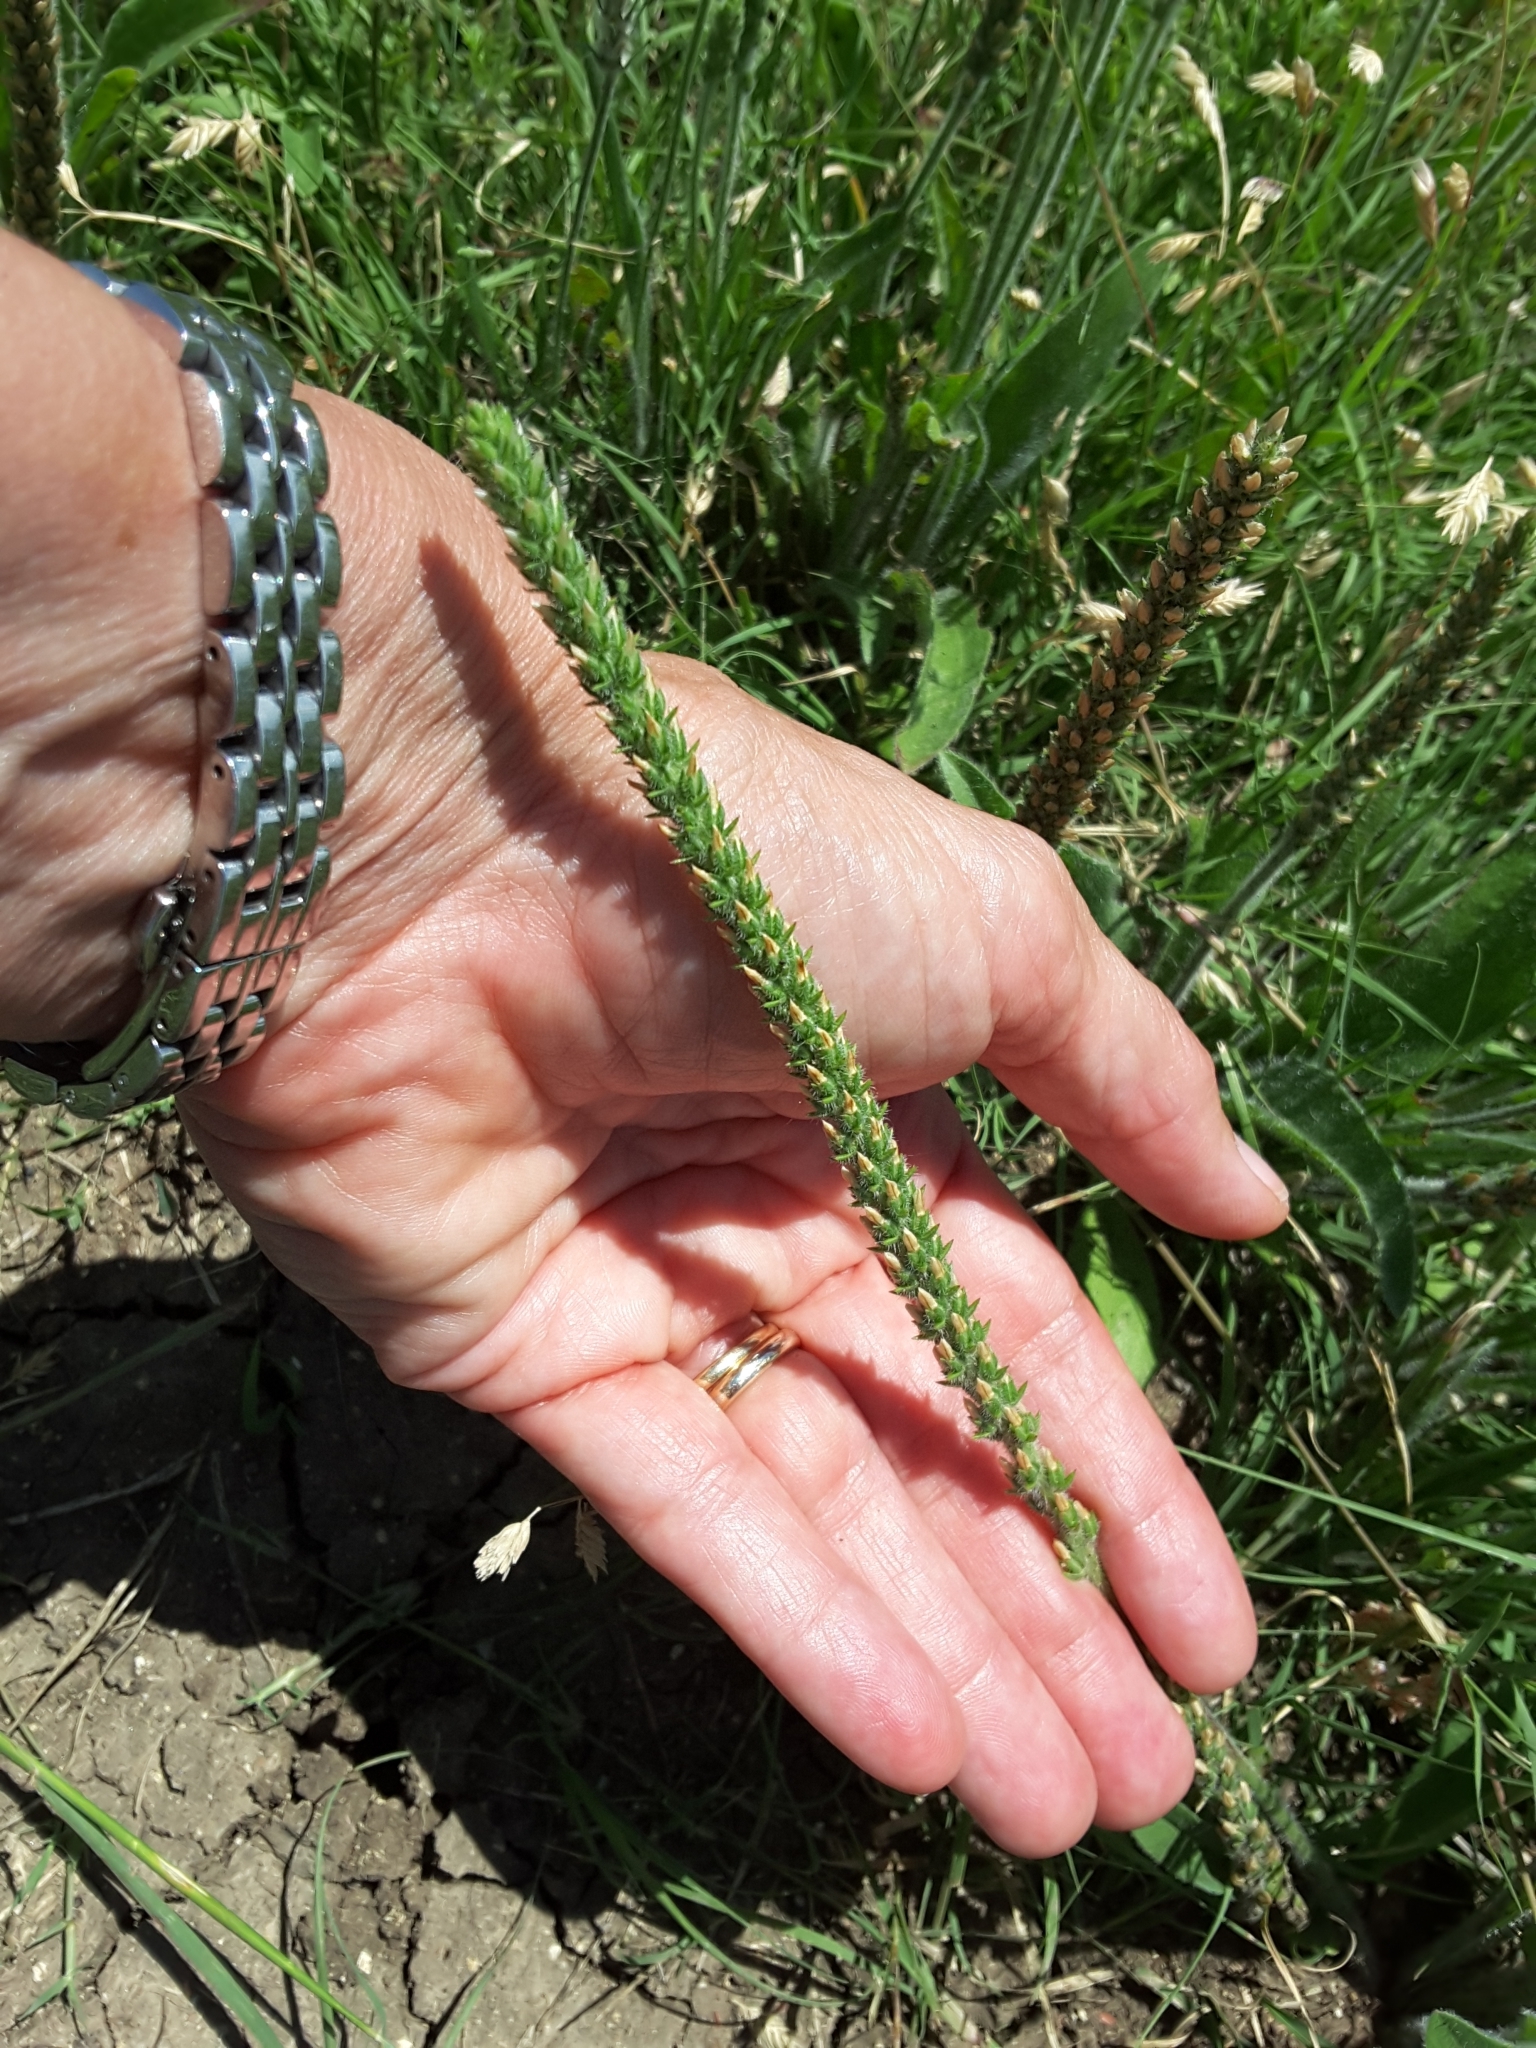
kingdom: Plantae
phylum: Tracheophyta
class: Magnoliopsida
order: Lamiales
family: Plantaginaceae
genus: Plantago
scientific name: Plantago virginica
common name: Hoary plantain
